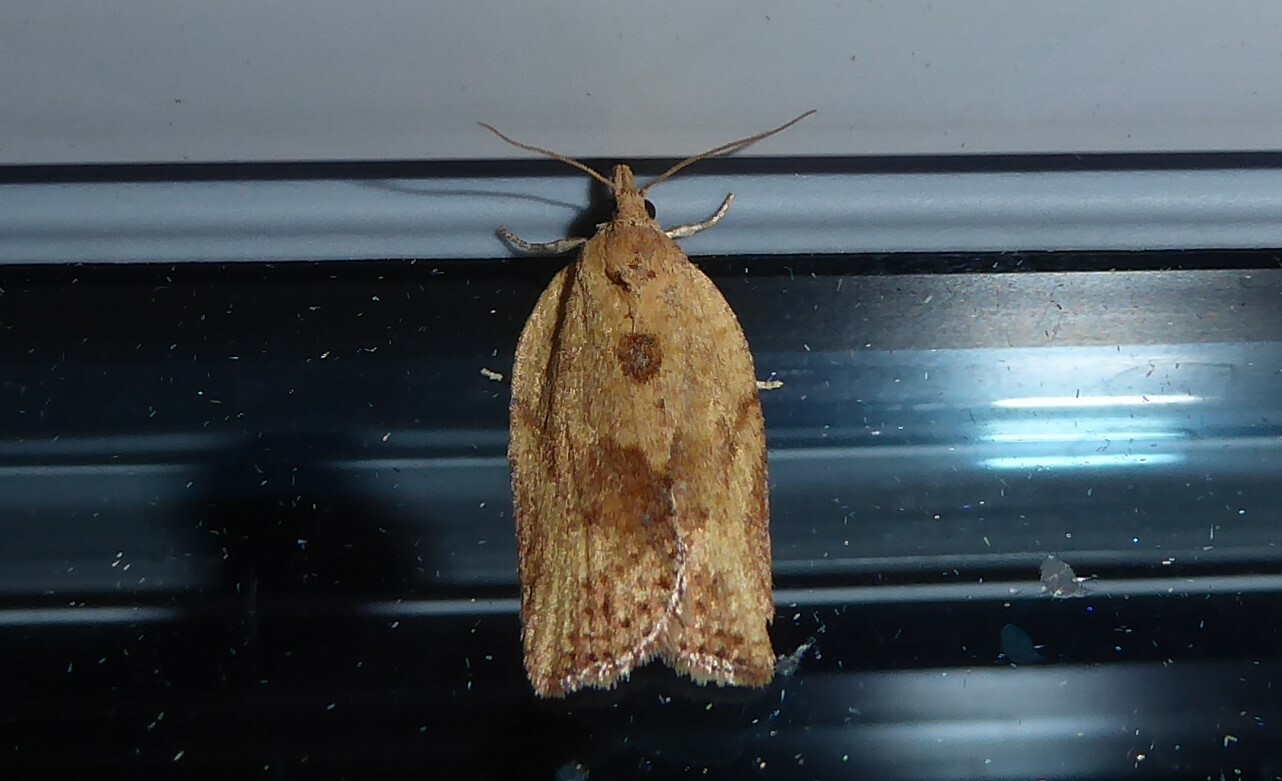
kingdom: Animalia
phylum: Arthropoda
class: Insecta
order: Lepidoptera
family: Tortricidae
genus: Epiphyas
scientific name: Epiphyas postvittana
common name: Light brown apple moth
